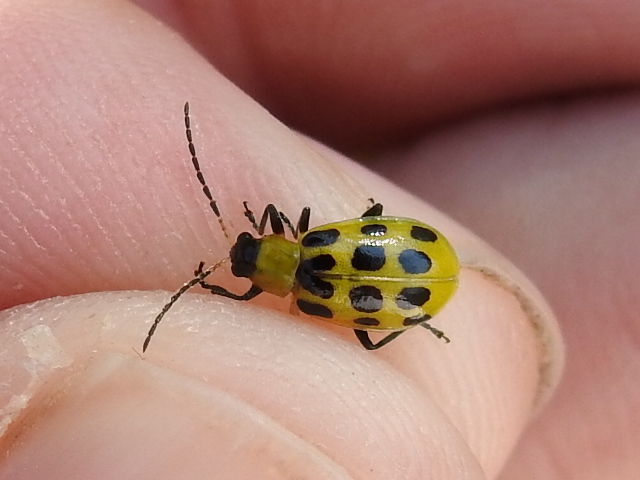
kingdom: Animalia
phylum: Arthropoda
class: Insecta
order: Coleoptera
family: Chrysomelidae
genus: Diabrotica
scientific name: Diabrotica undecimpunctata
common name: Spotted cucumber beetle
